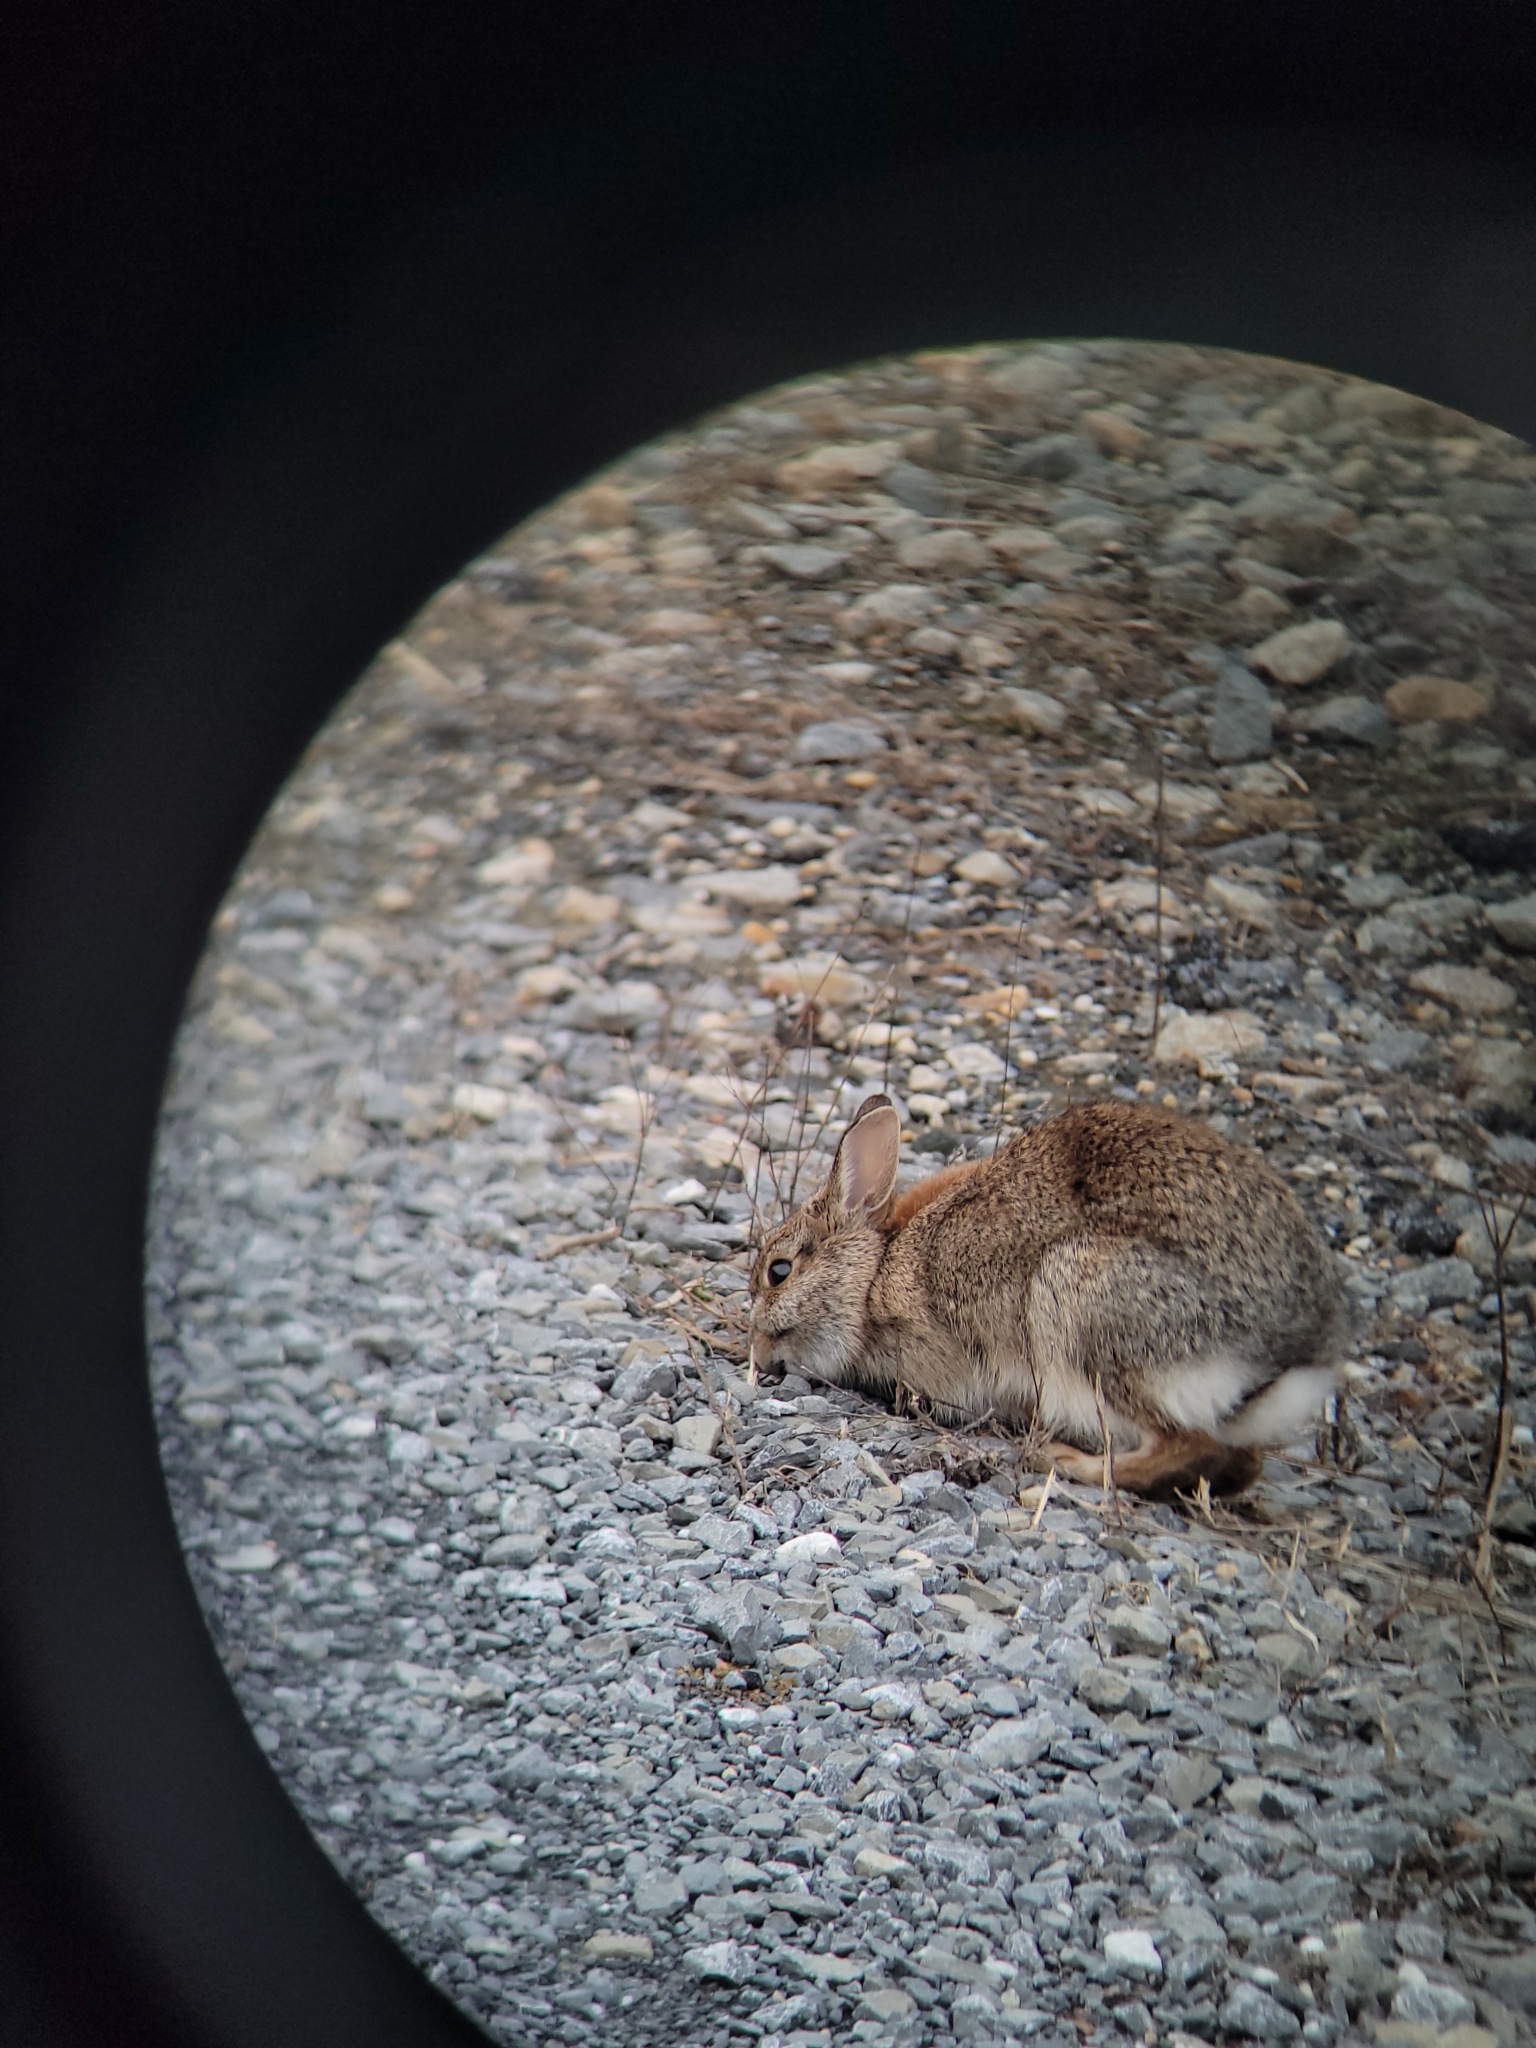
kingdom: Animalia
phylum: Chordata
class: Mammalia
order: Lagomorpha
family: Leporidae
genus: Sylvilagus
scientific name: Sylvilagus floridanus
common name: Eastern cottontail
